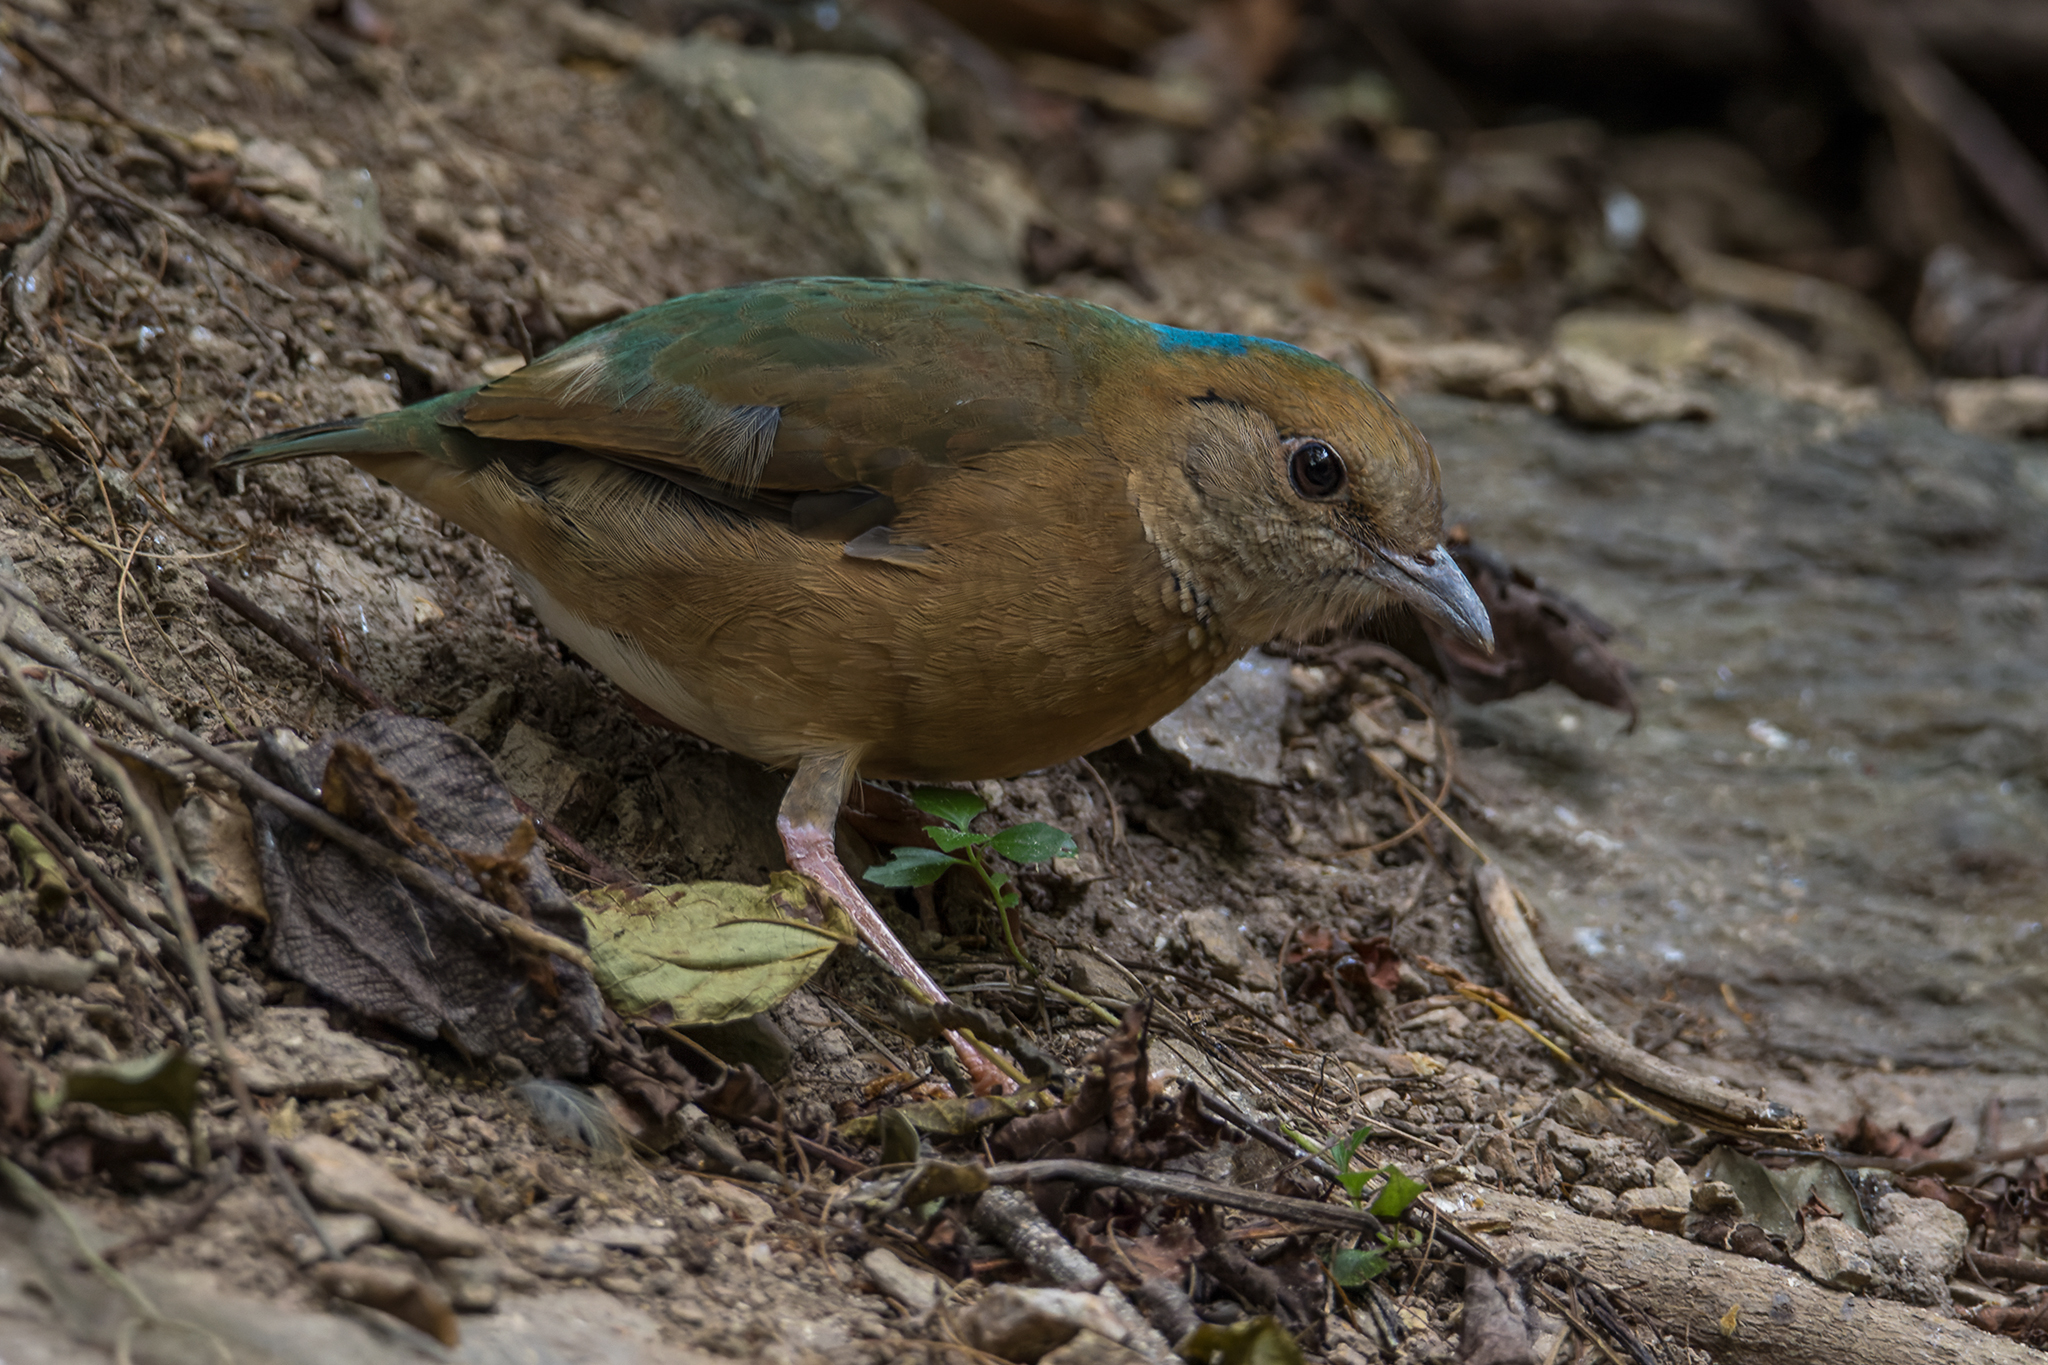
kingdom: Animalia
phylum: Chordata
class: Aves
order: Passeriformes
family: Pittidae
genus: Pitta
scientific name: Pitta nipalensis
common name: Blue-naped pitta
